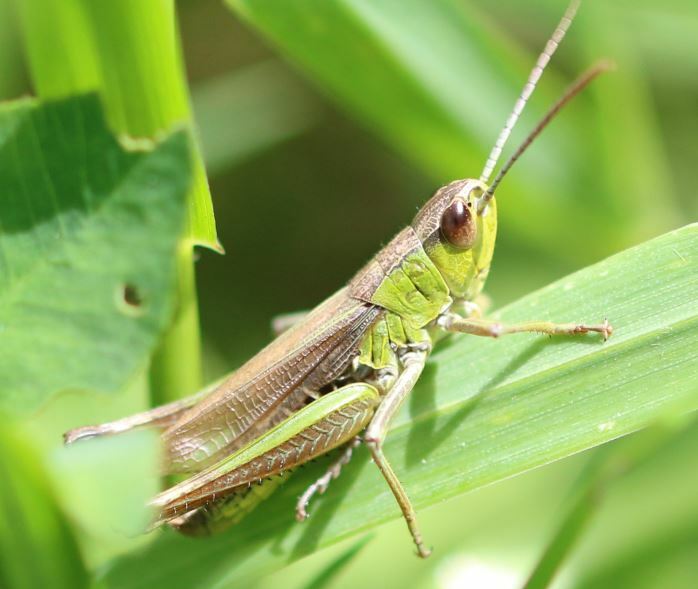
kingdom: Animalia
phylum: Arthropoda
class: Insecta
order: Orthoptera
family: Acrididae
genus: Pseudochorthippus
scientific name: Pseudochorthippus parallelus
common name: Meadow grasshopper
